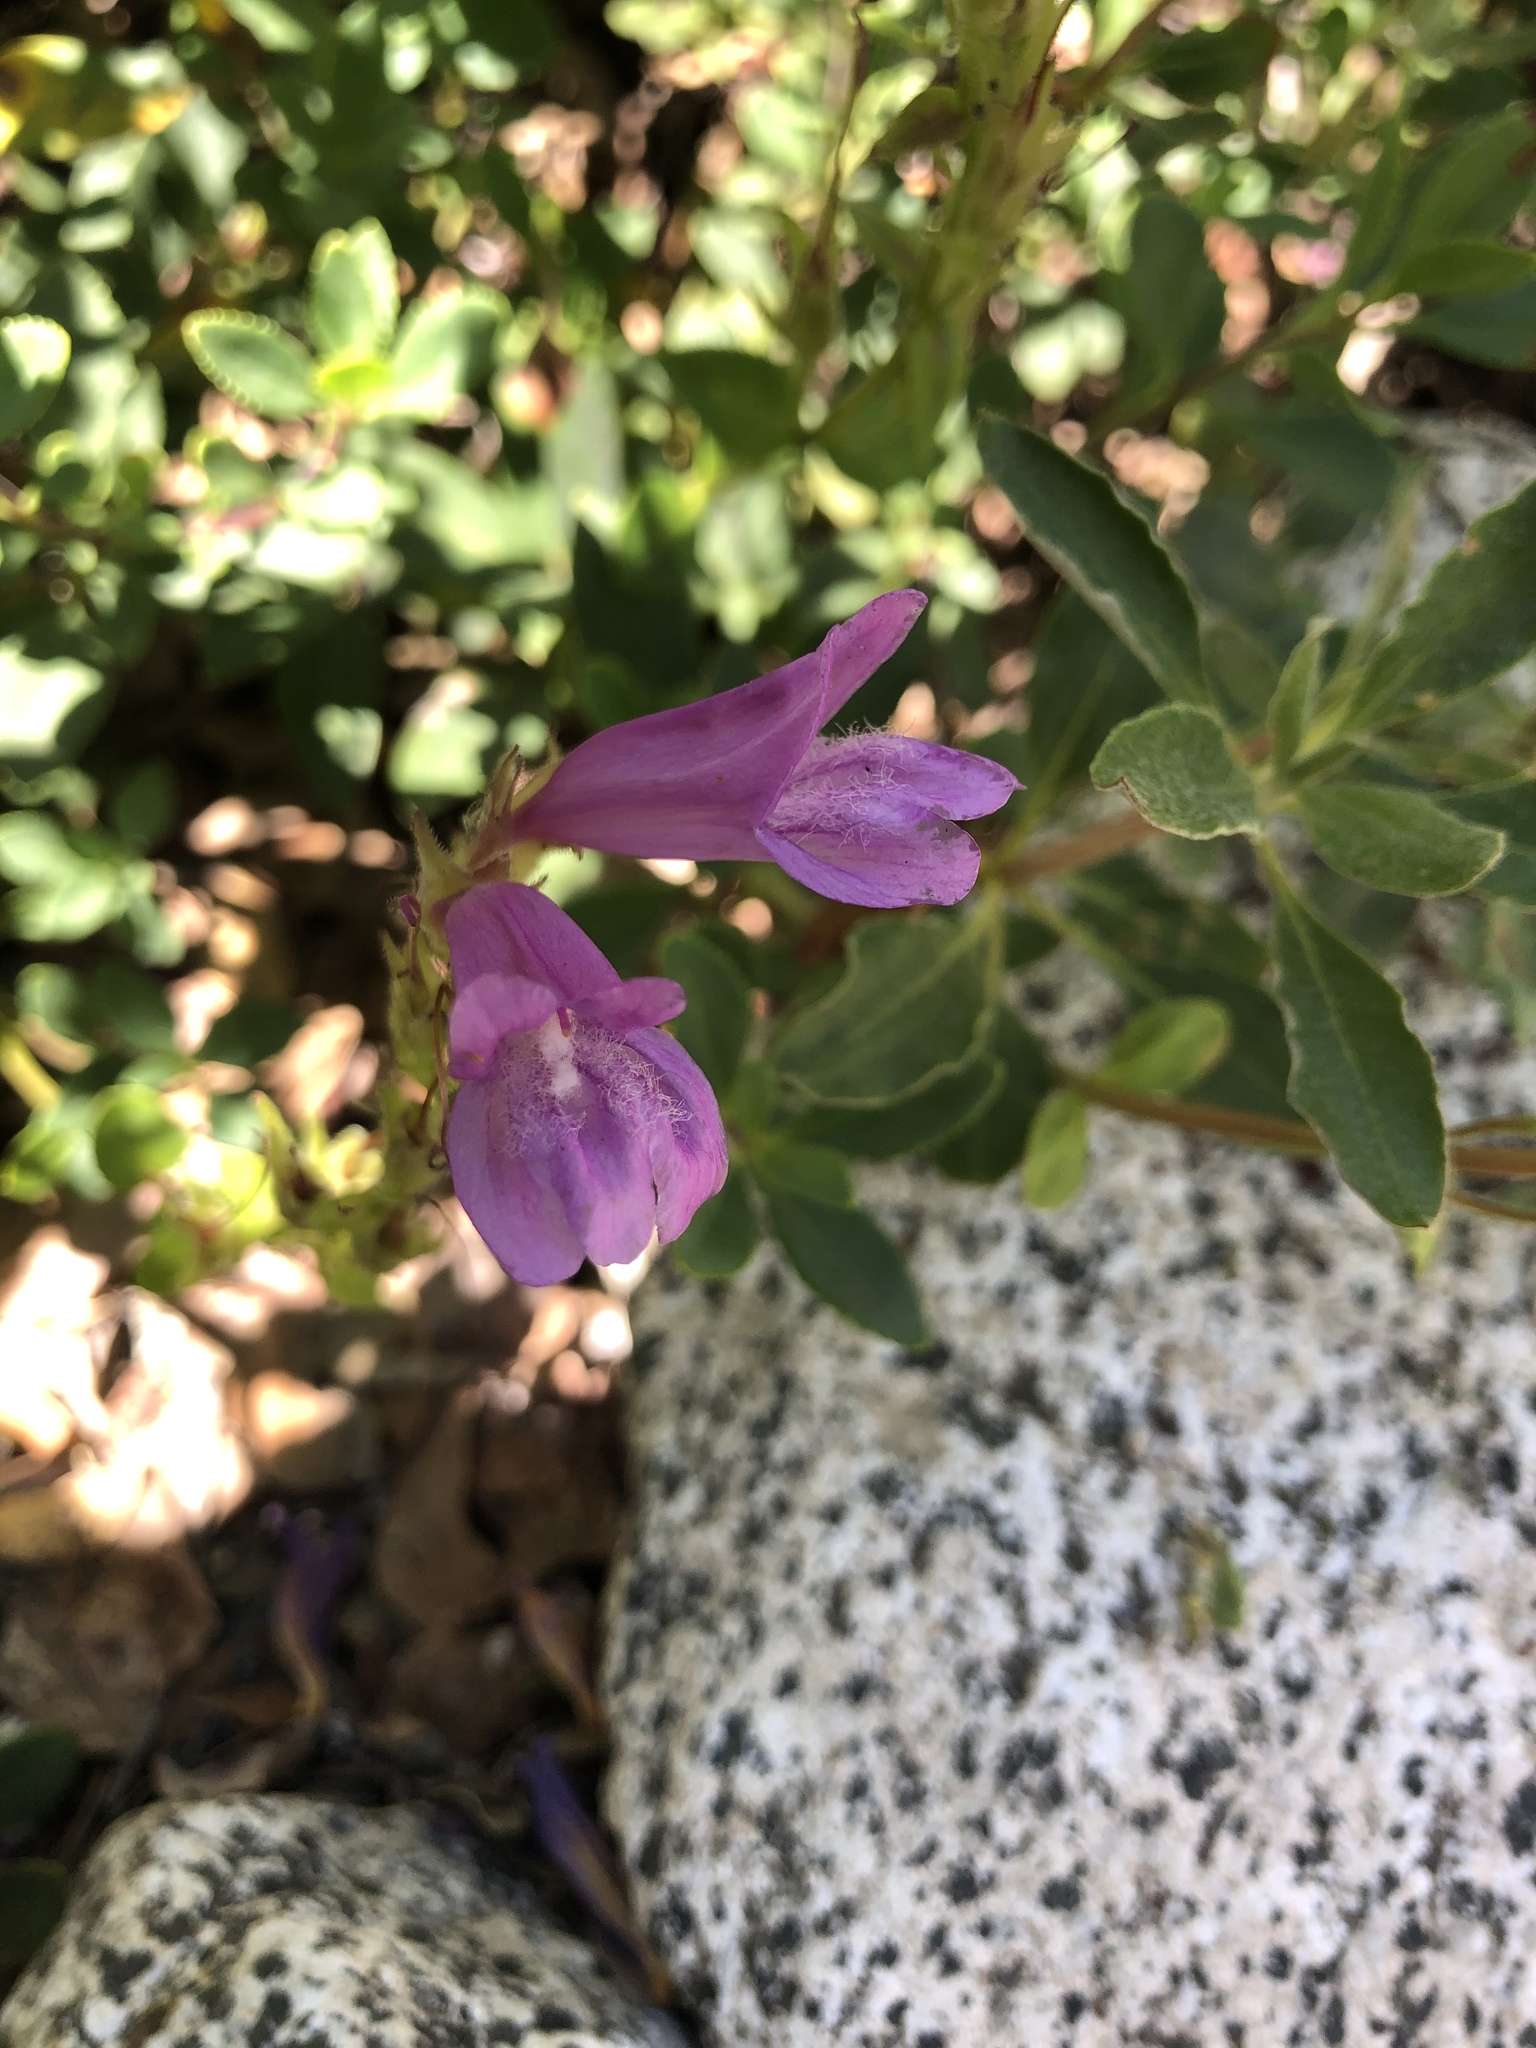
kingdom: Plantae
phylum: Tracheophyta
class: Magnoliopsida
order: Lamiales
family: Plantaginaceae
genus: Penstemon
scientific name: Penstemon davidsonii
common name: Davidson's penstemon
